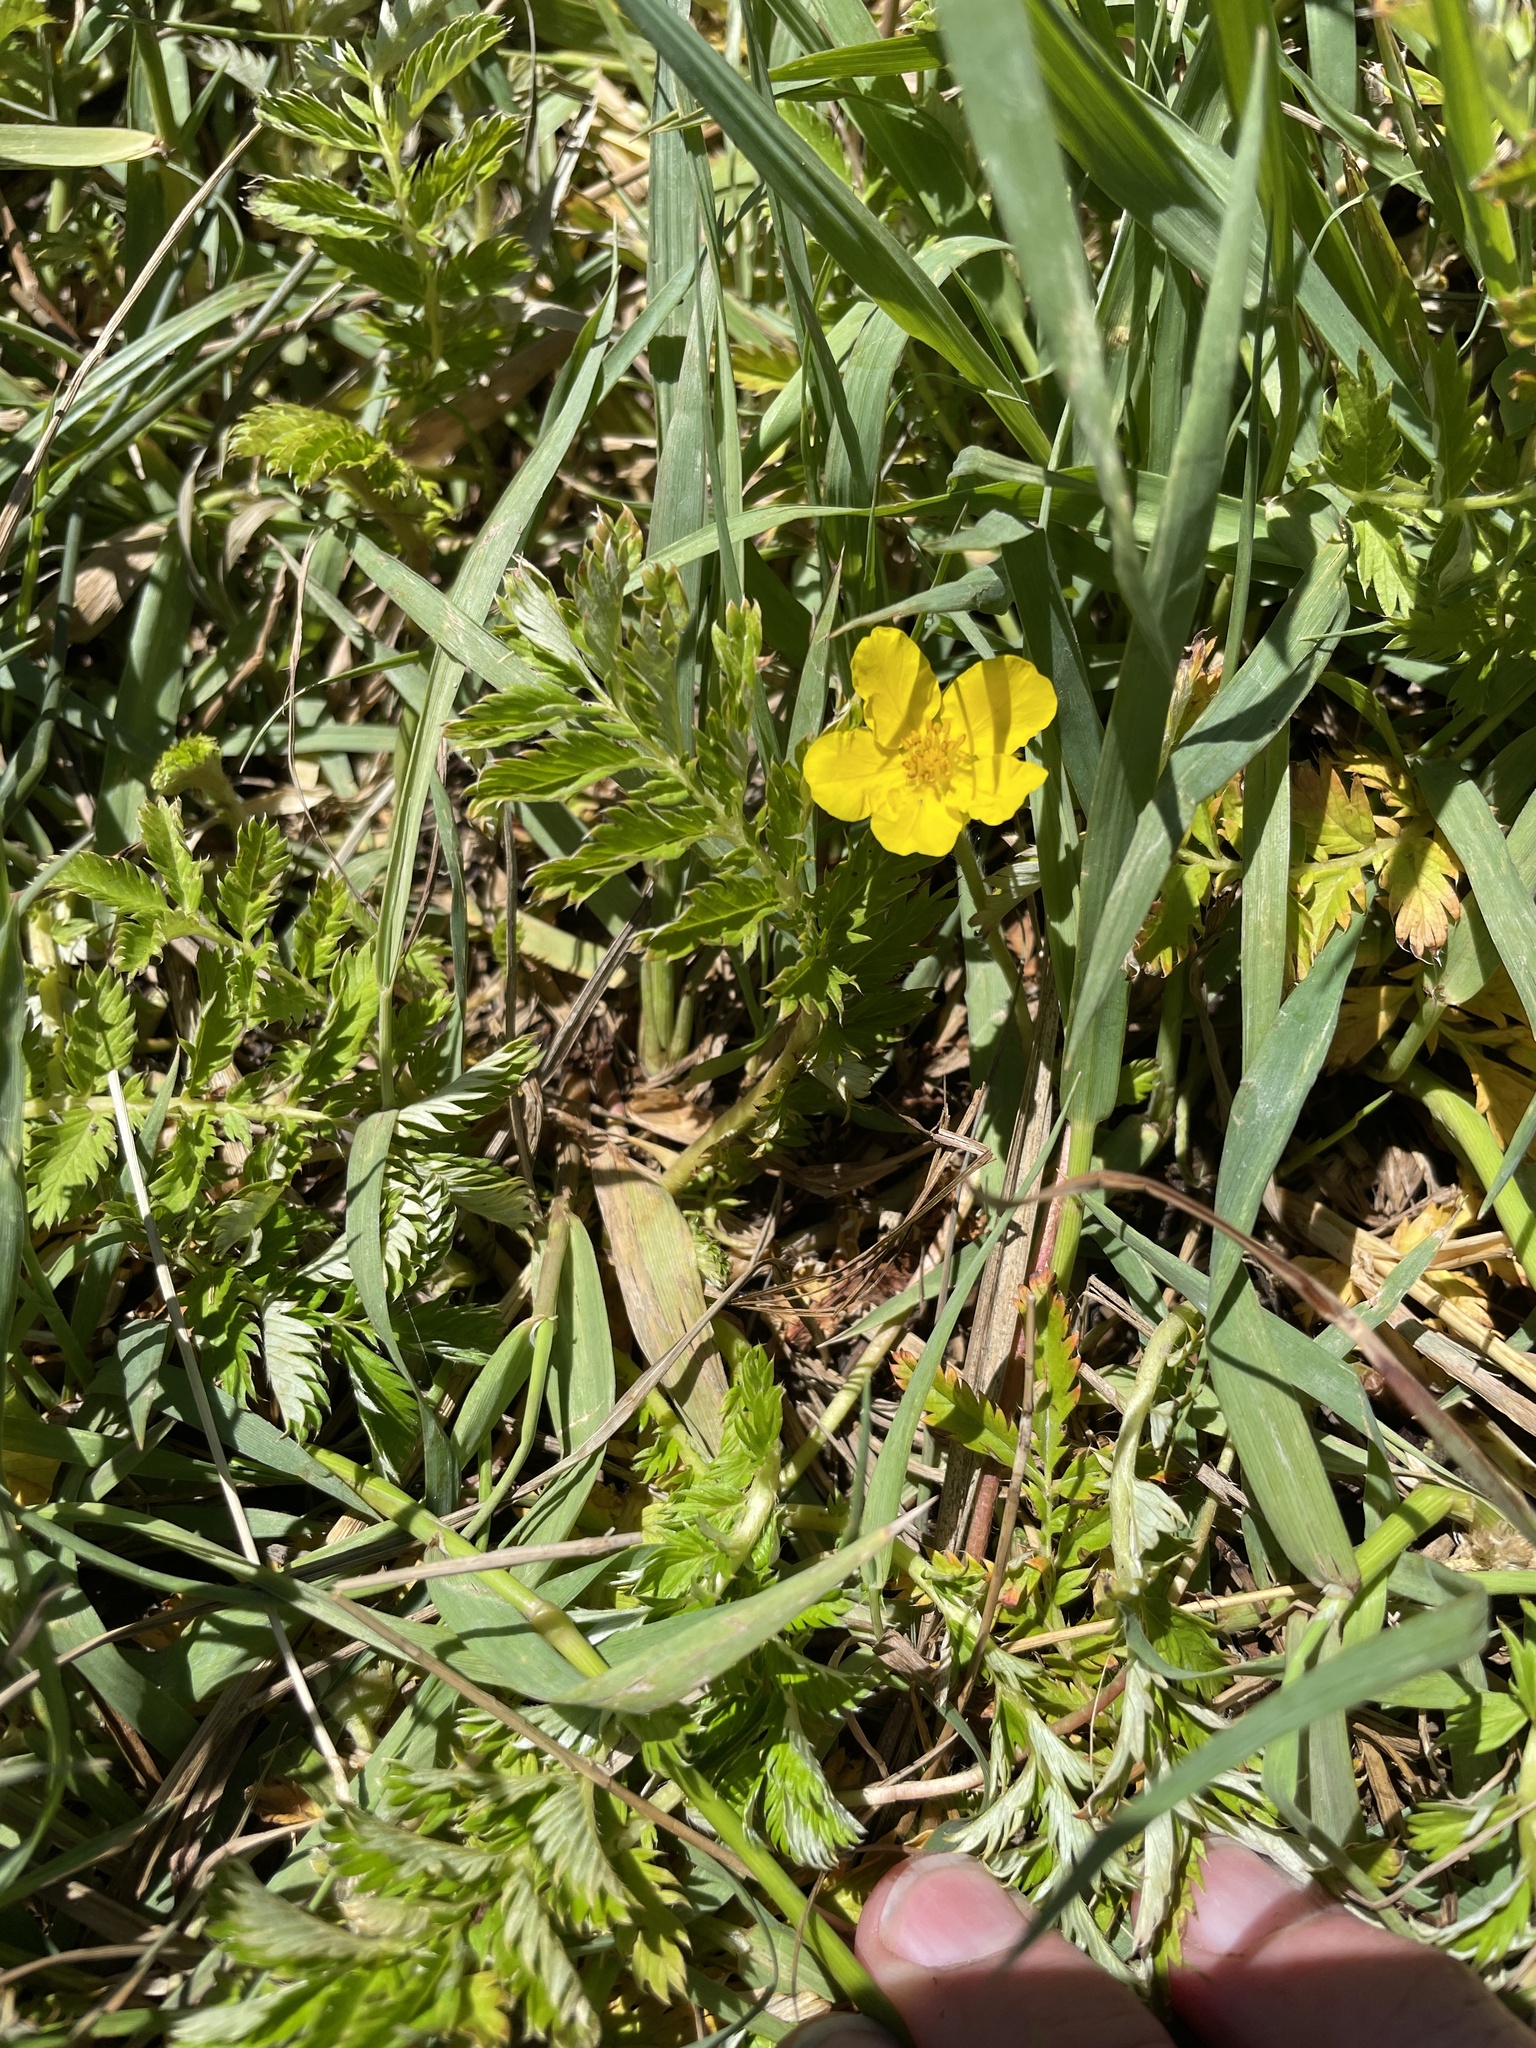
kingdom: Plantae
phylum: Tracheophyta
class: Magnoliopsida
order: Rosales
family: Rosaceae
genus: Argentina
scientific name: Argentina anserina
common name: Common silverweed
